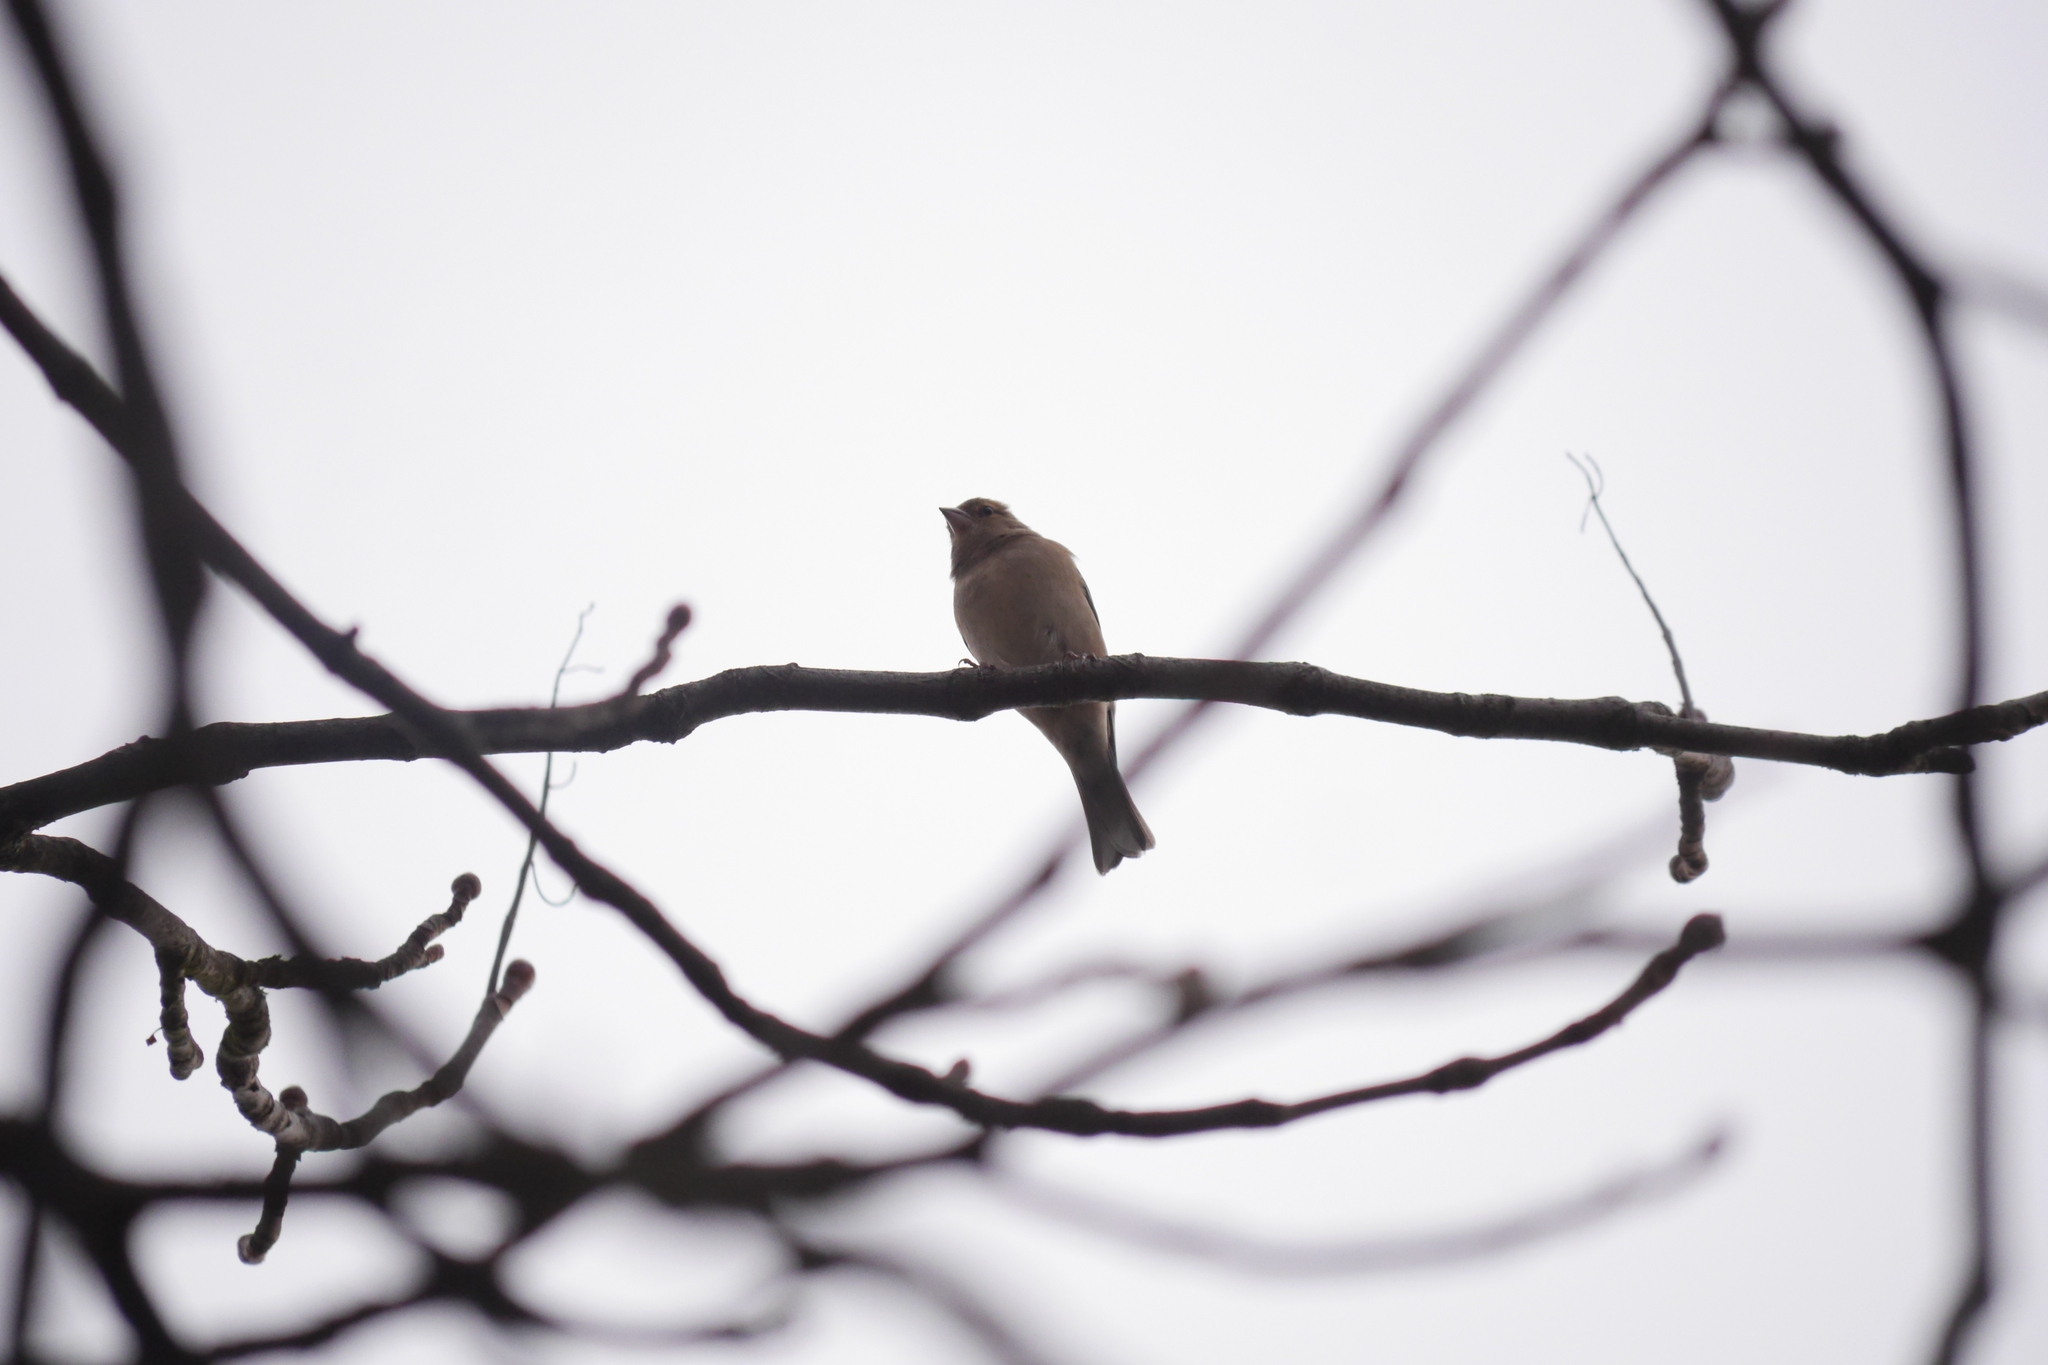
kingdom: Animalia
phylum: Chordata
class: Aves
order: Passeriformes
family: Fringillidae
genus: Fringilla
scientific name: Fringilla coelebs
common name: Common chaffinch
